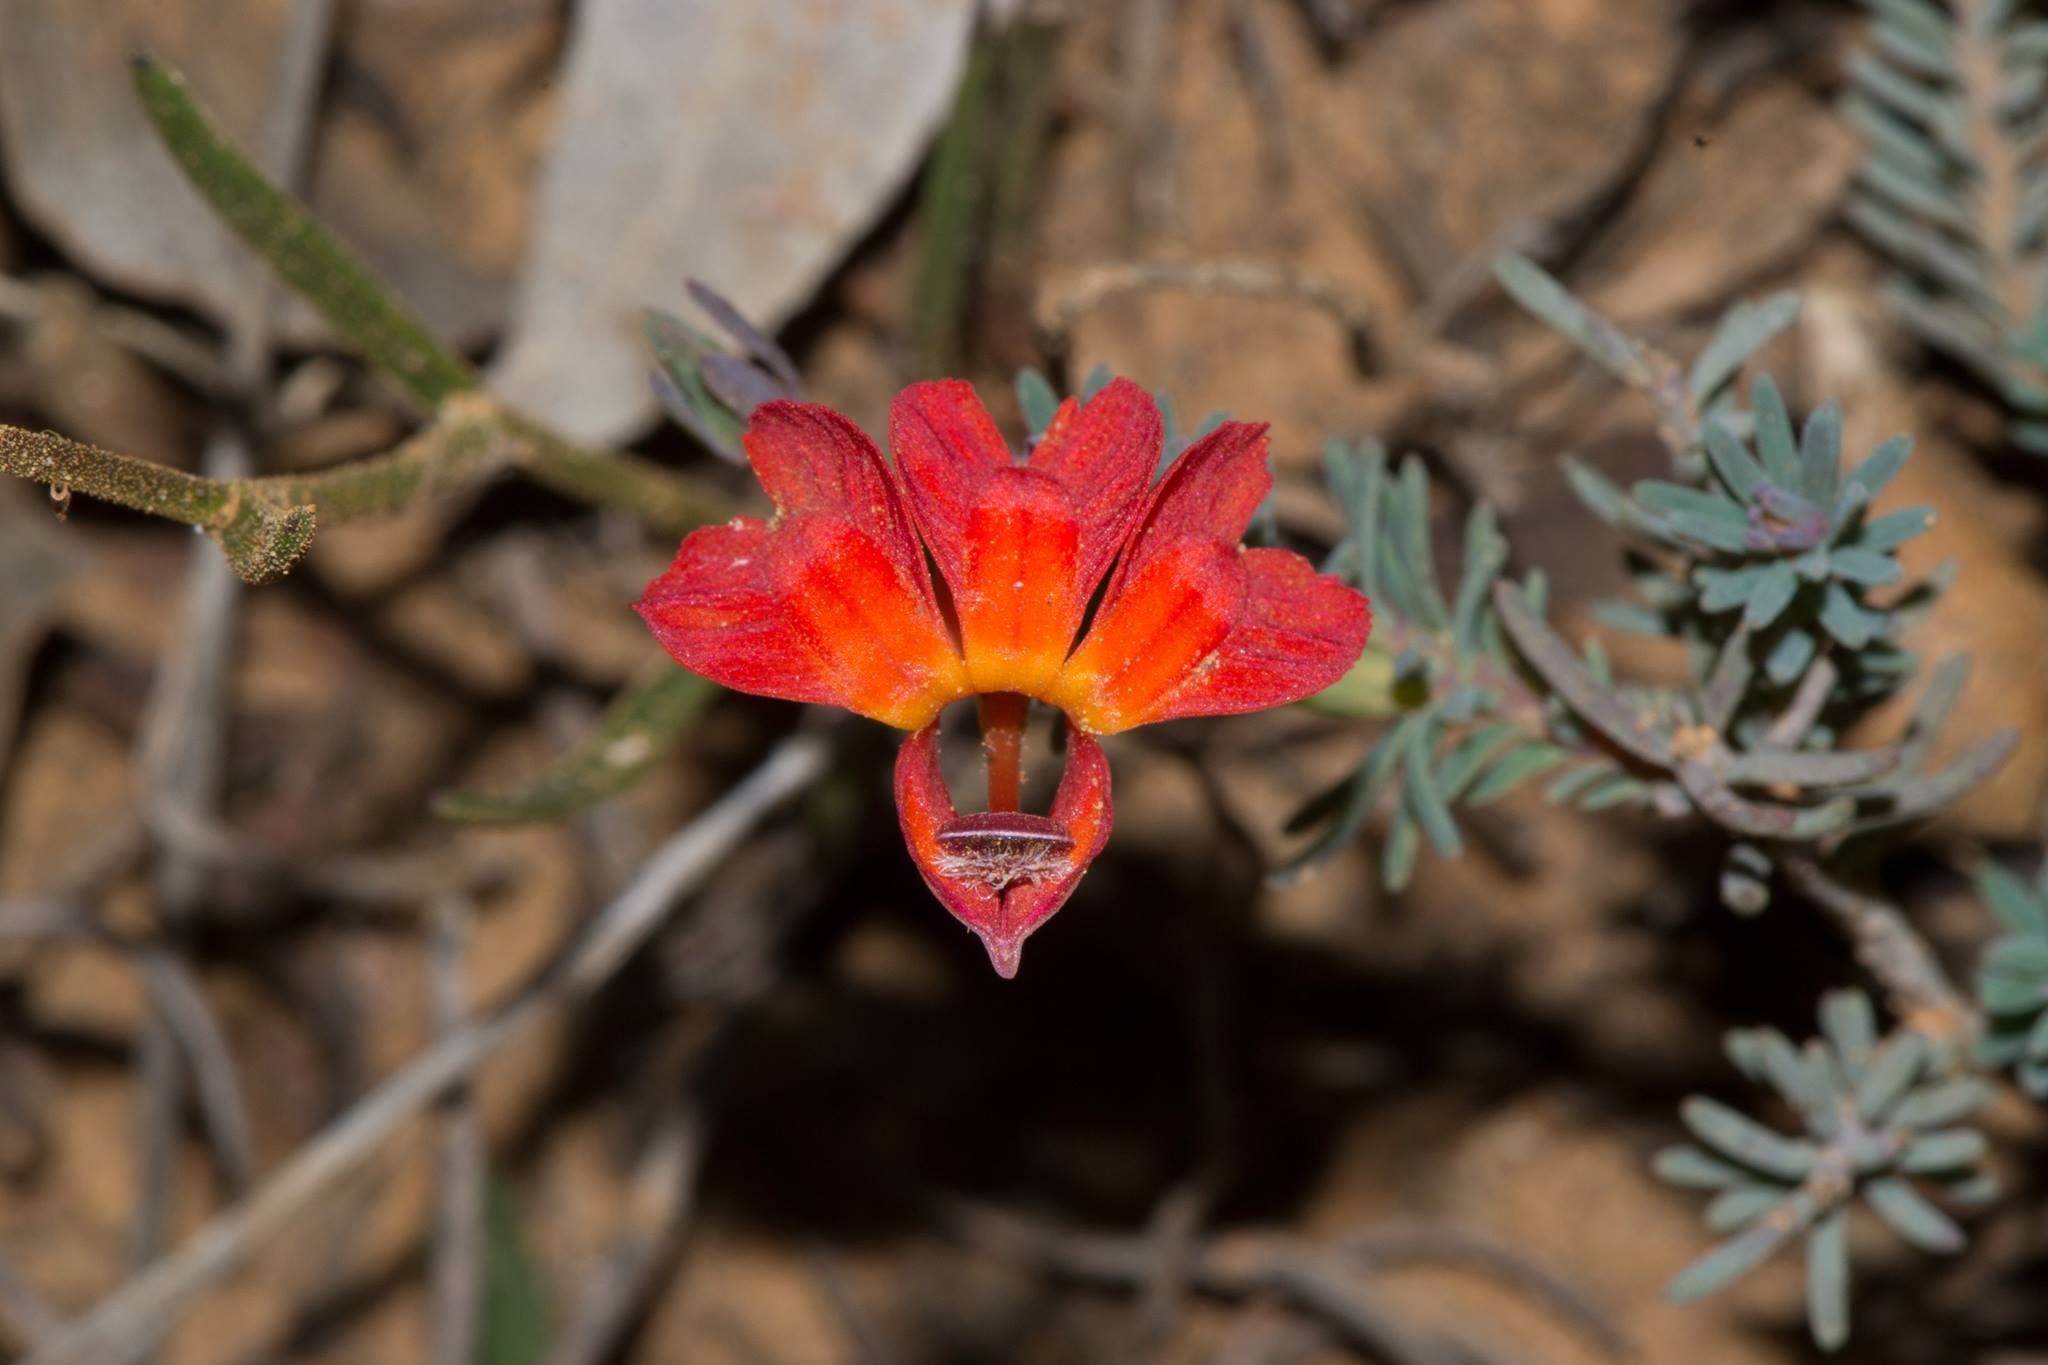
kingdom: Plantae
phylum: Tracheophyta
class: Magnoliopsida
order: Asterales
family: Goodeniaceae
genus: Lechenaultia
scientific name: Lechenaultia formosa
